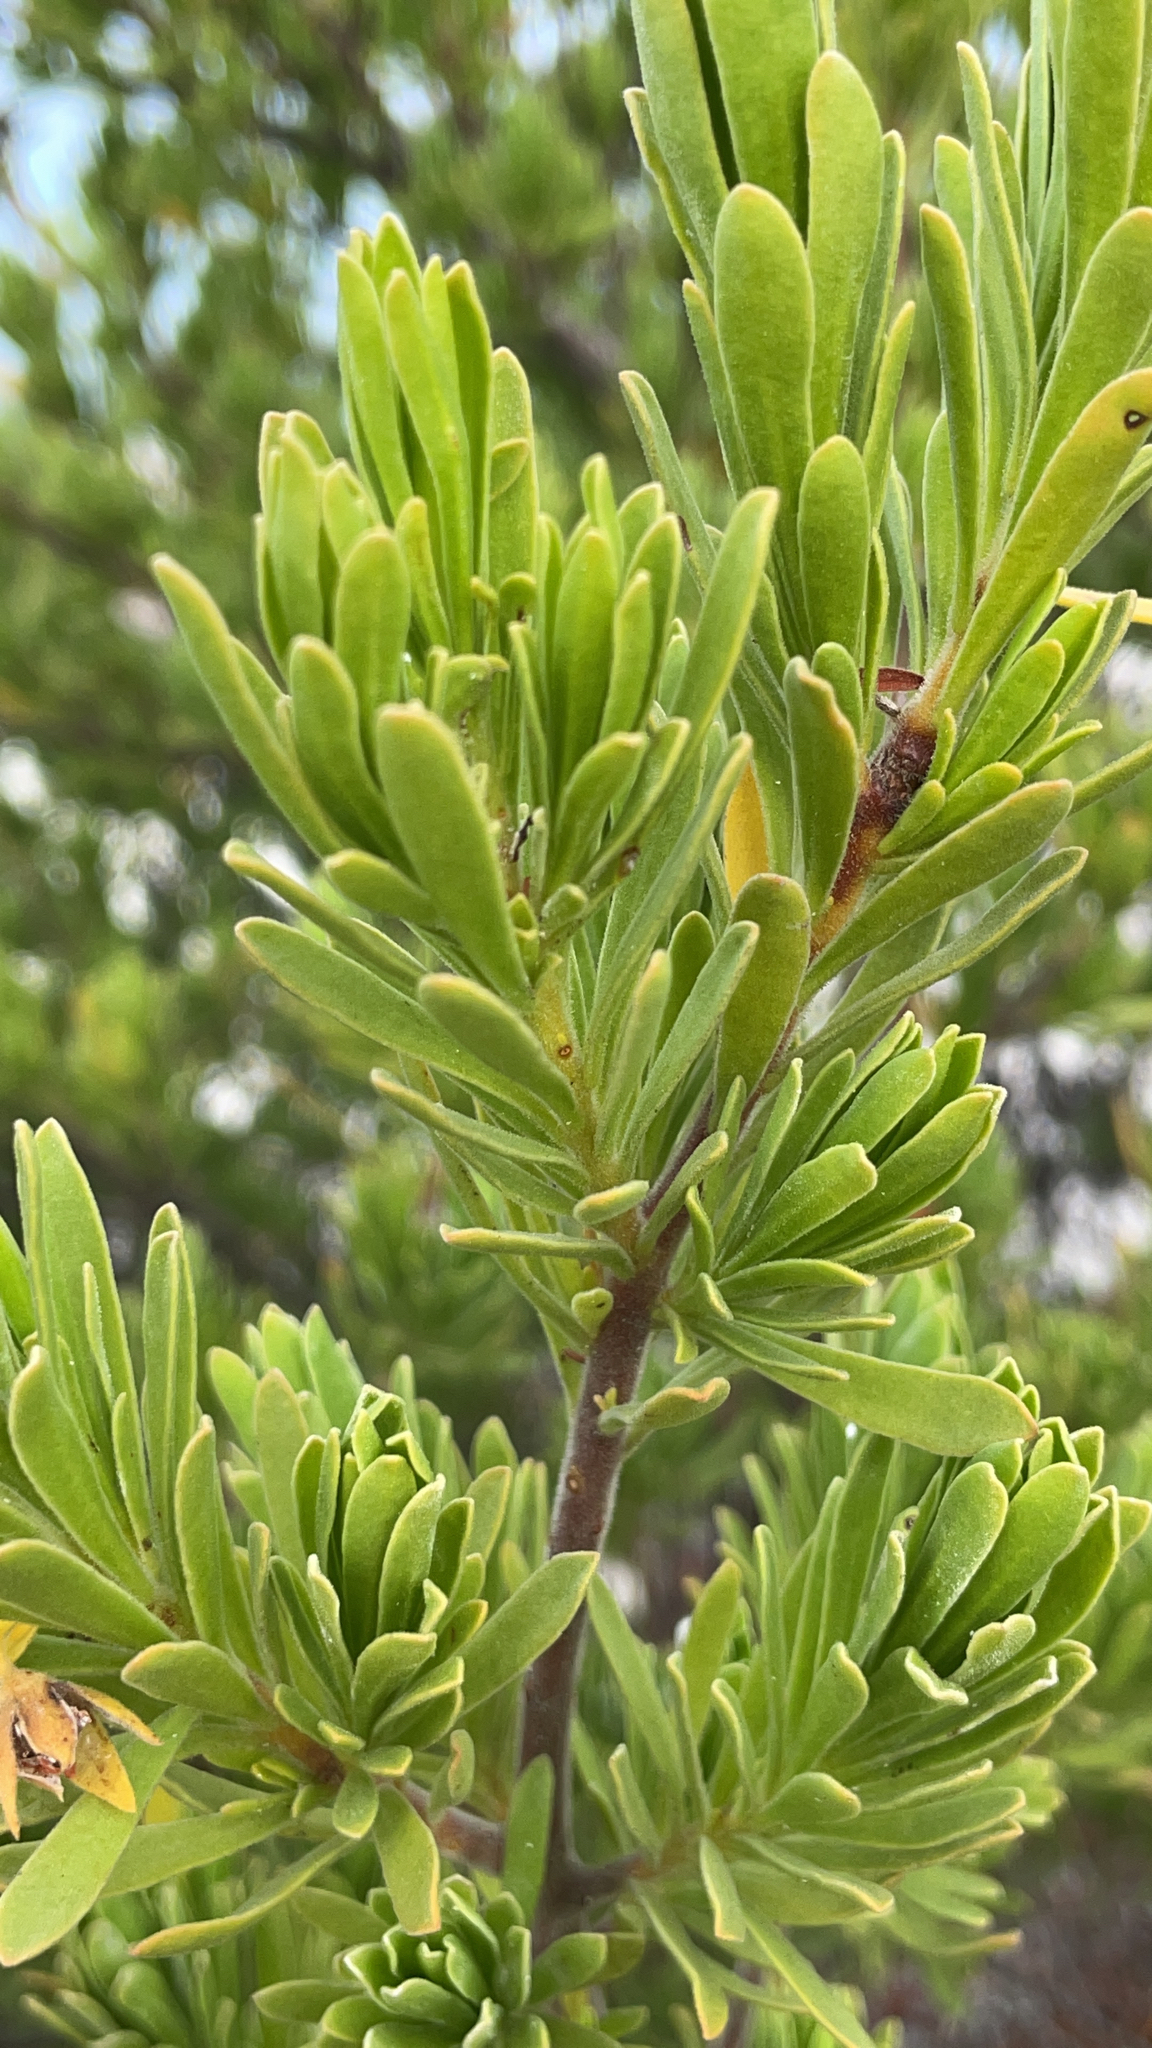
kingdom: Plantae
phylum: Tracheophyta
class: Magnoliopsida
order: Fabales
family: Surianaceae
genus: Suriana
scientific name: Suriana maritima
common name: Bay-cedar
